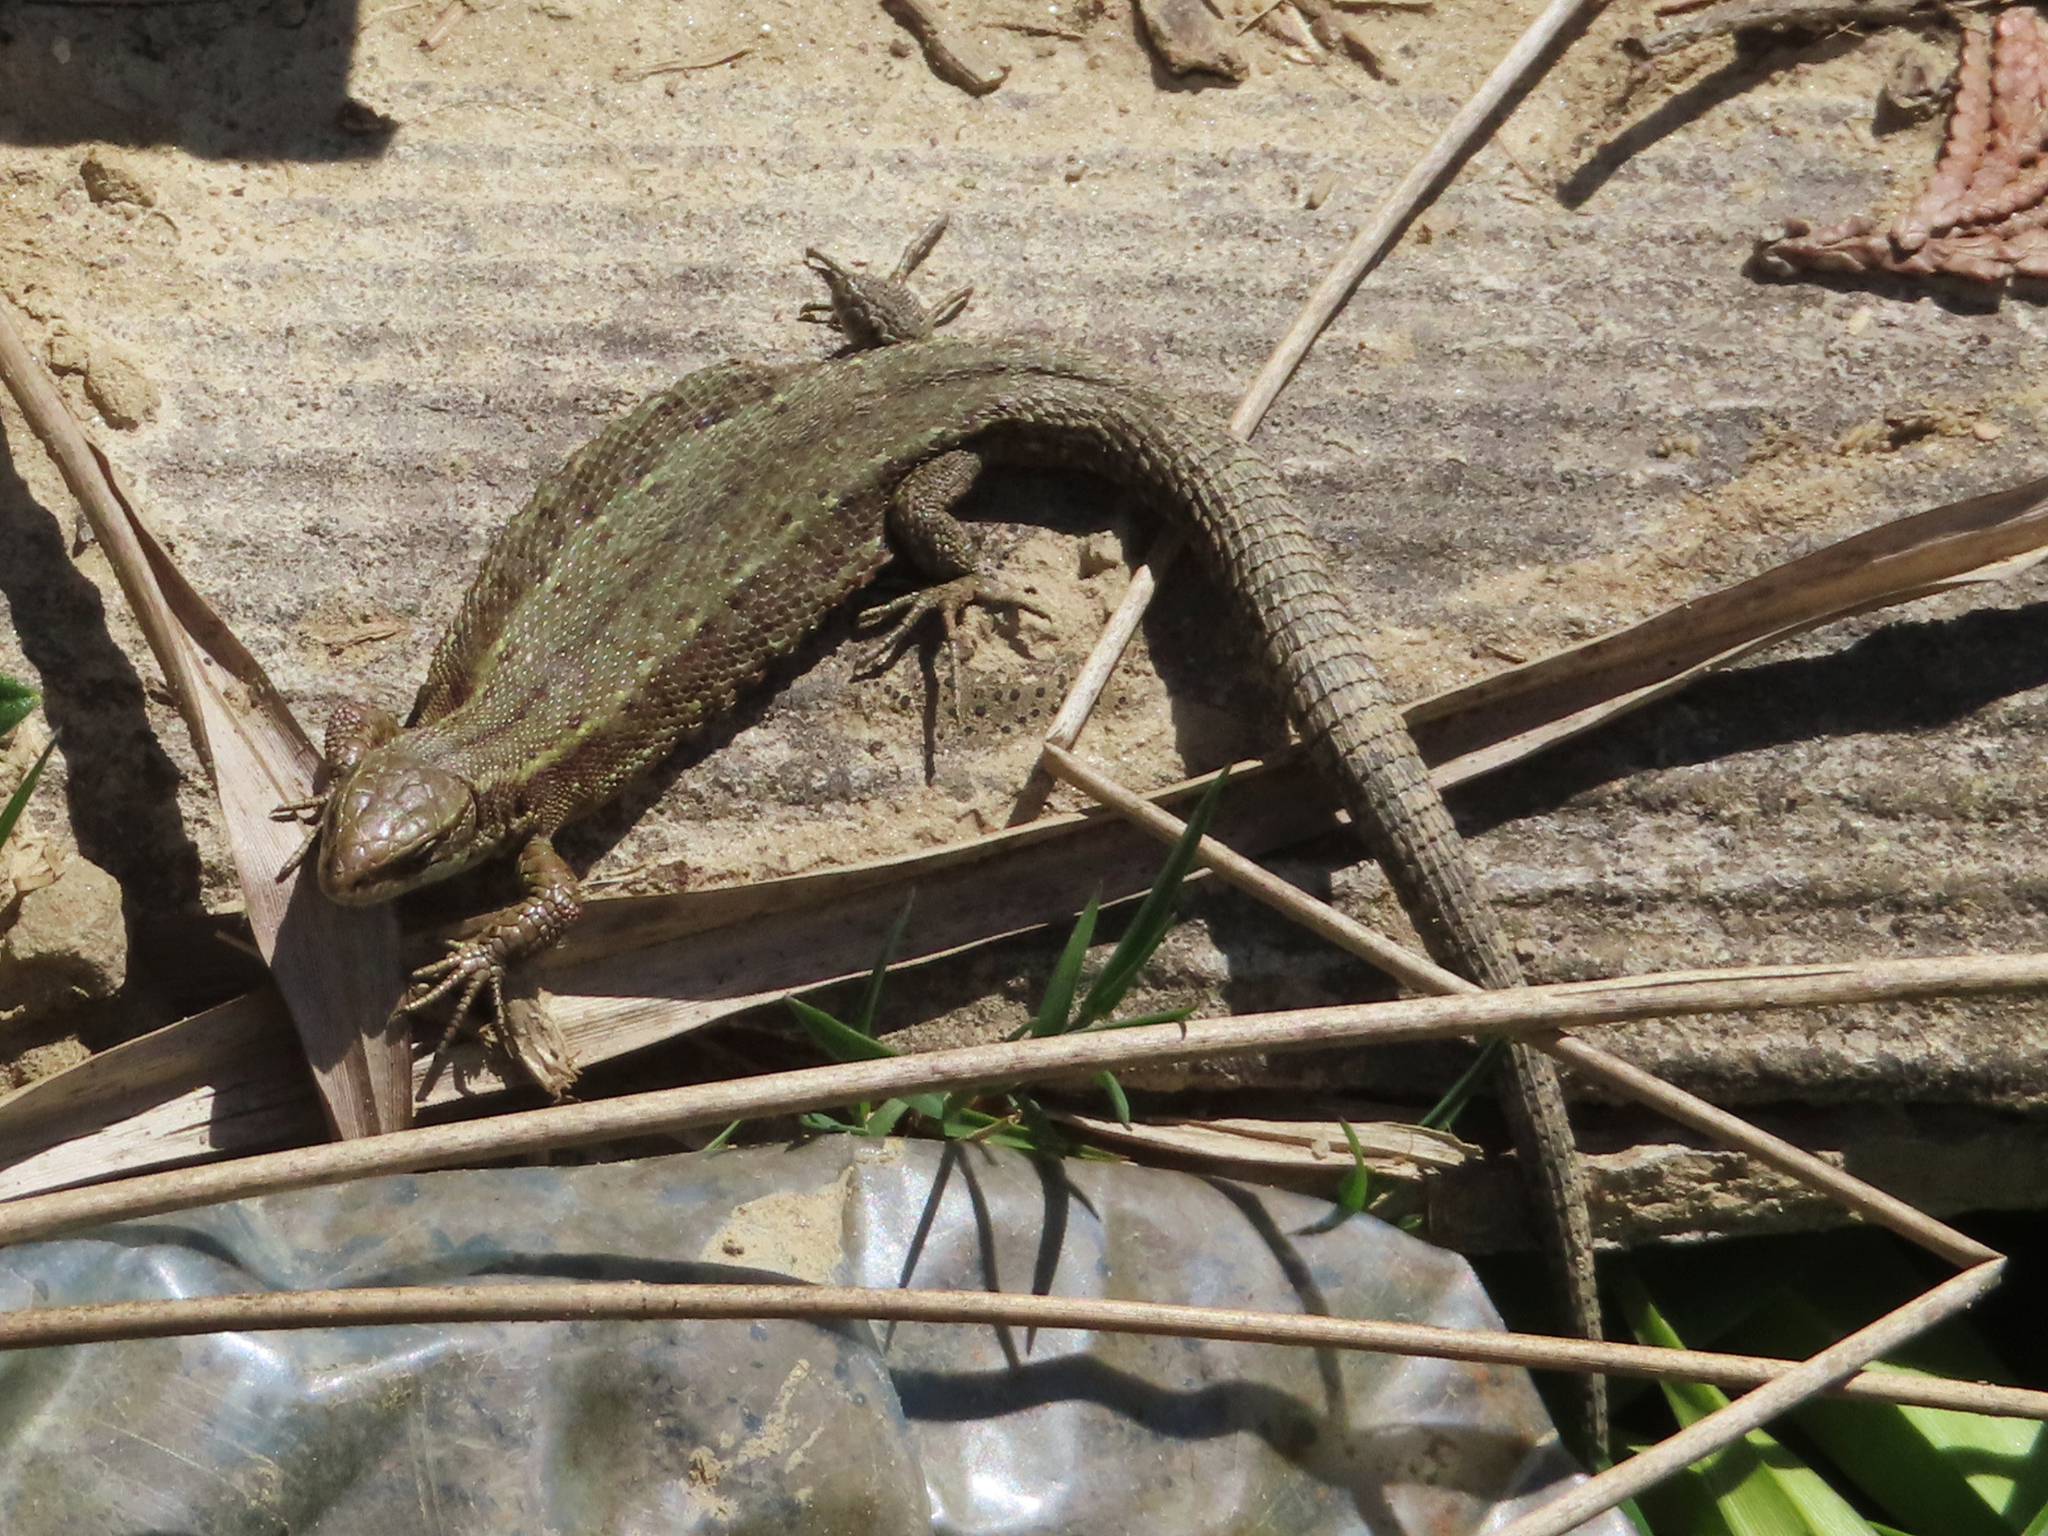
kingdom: Animalia
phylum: Chordata
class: Squamata
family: Lacertidae
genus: Zootoca
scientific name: Zootoca vivipara
